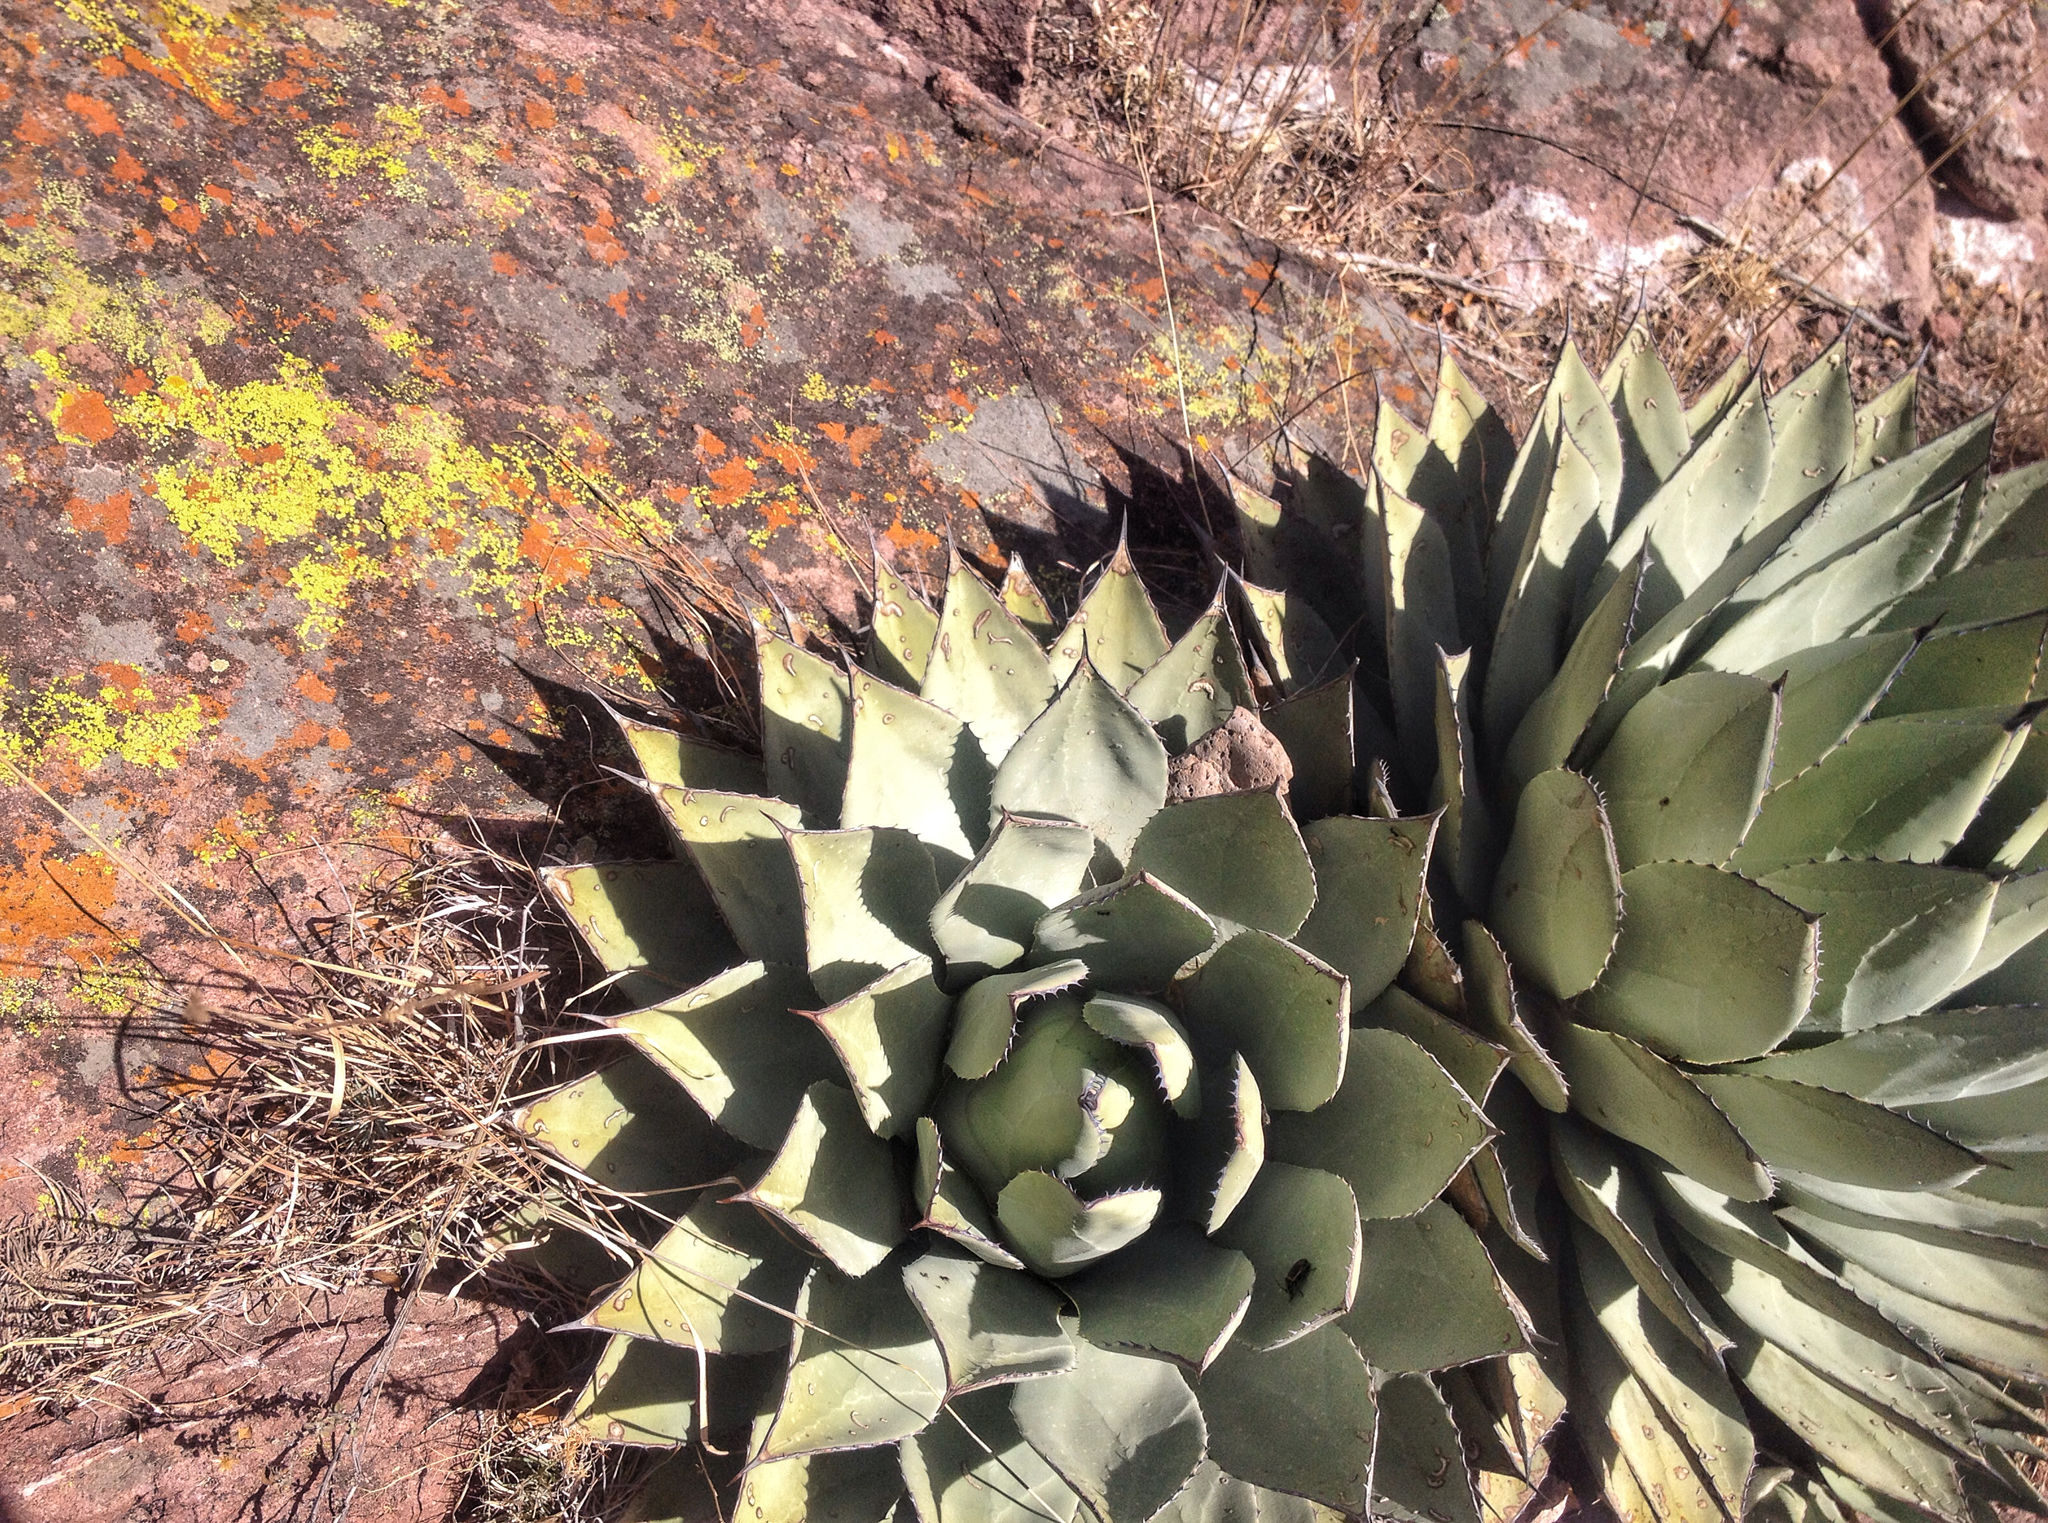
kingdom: Plantae
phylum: Tracheophyta
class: Liliopsida
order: Asparagales
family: Asparagaceae
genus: Agave
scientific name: Agave parryi
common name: Parry's agave
